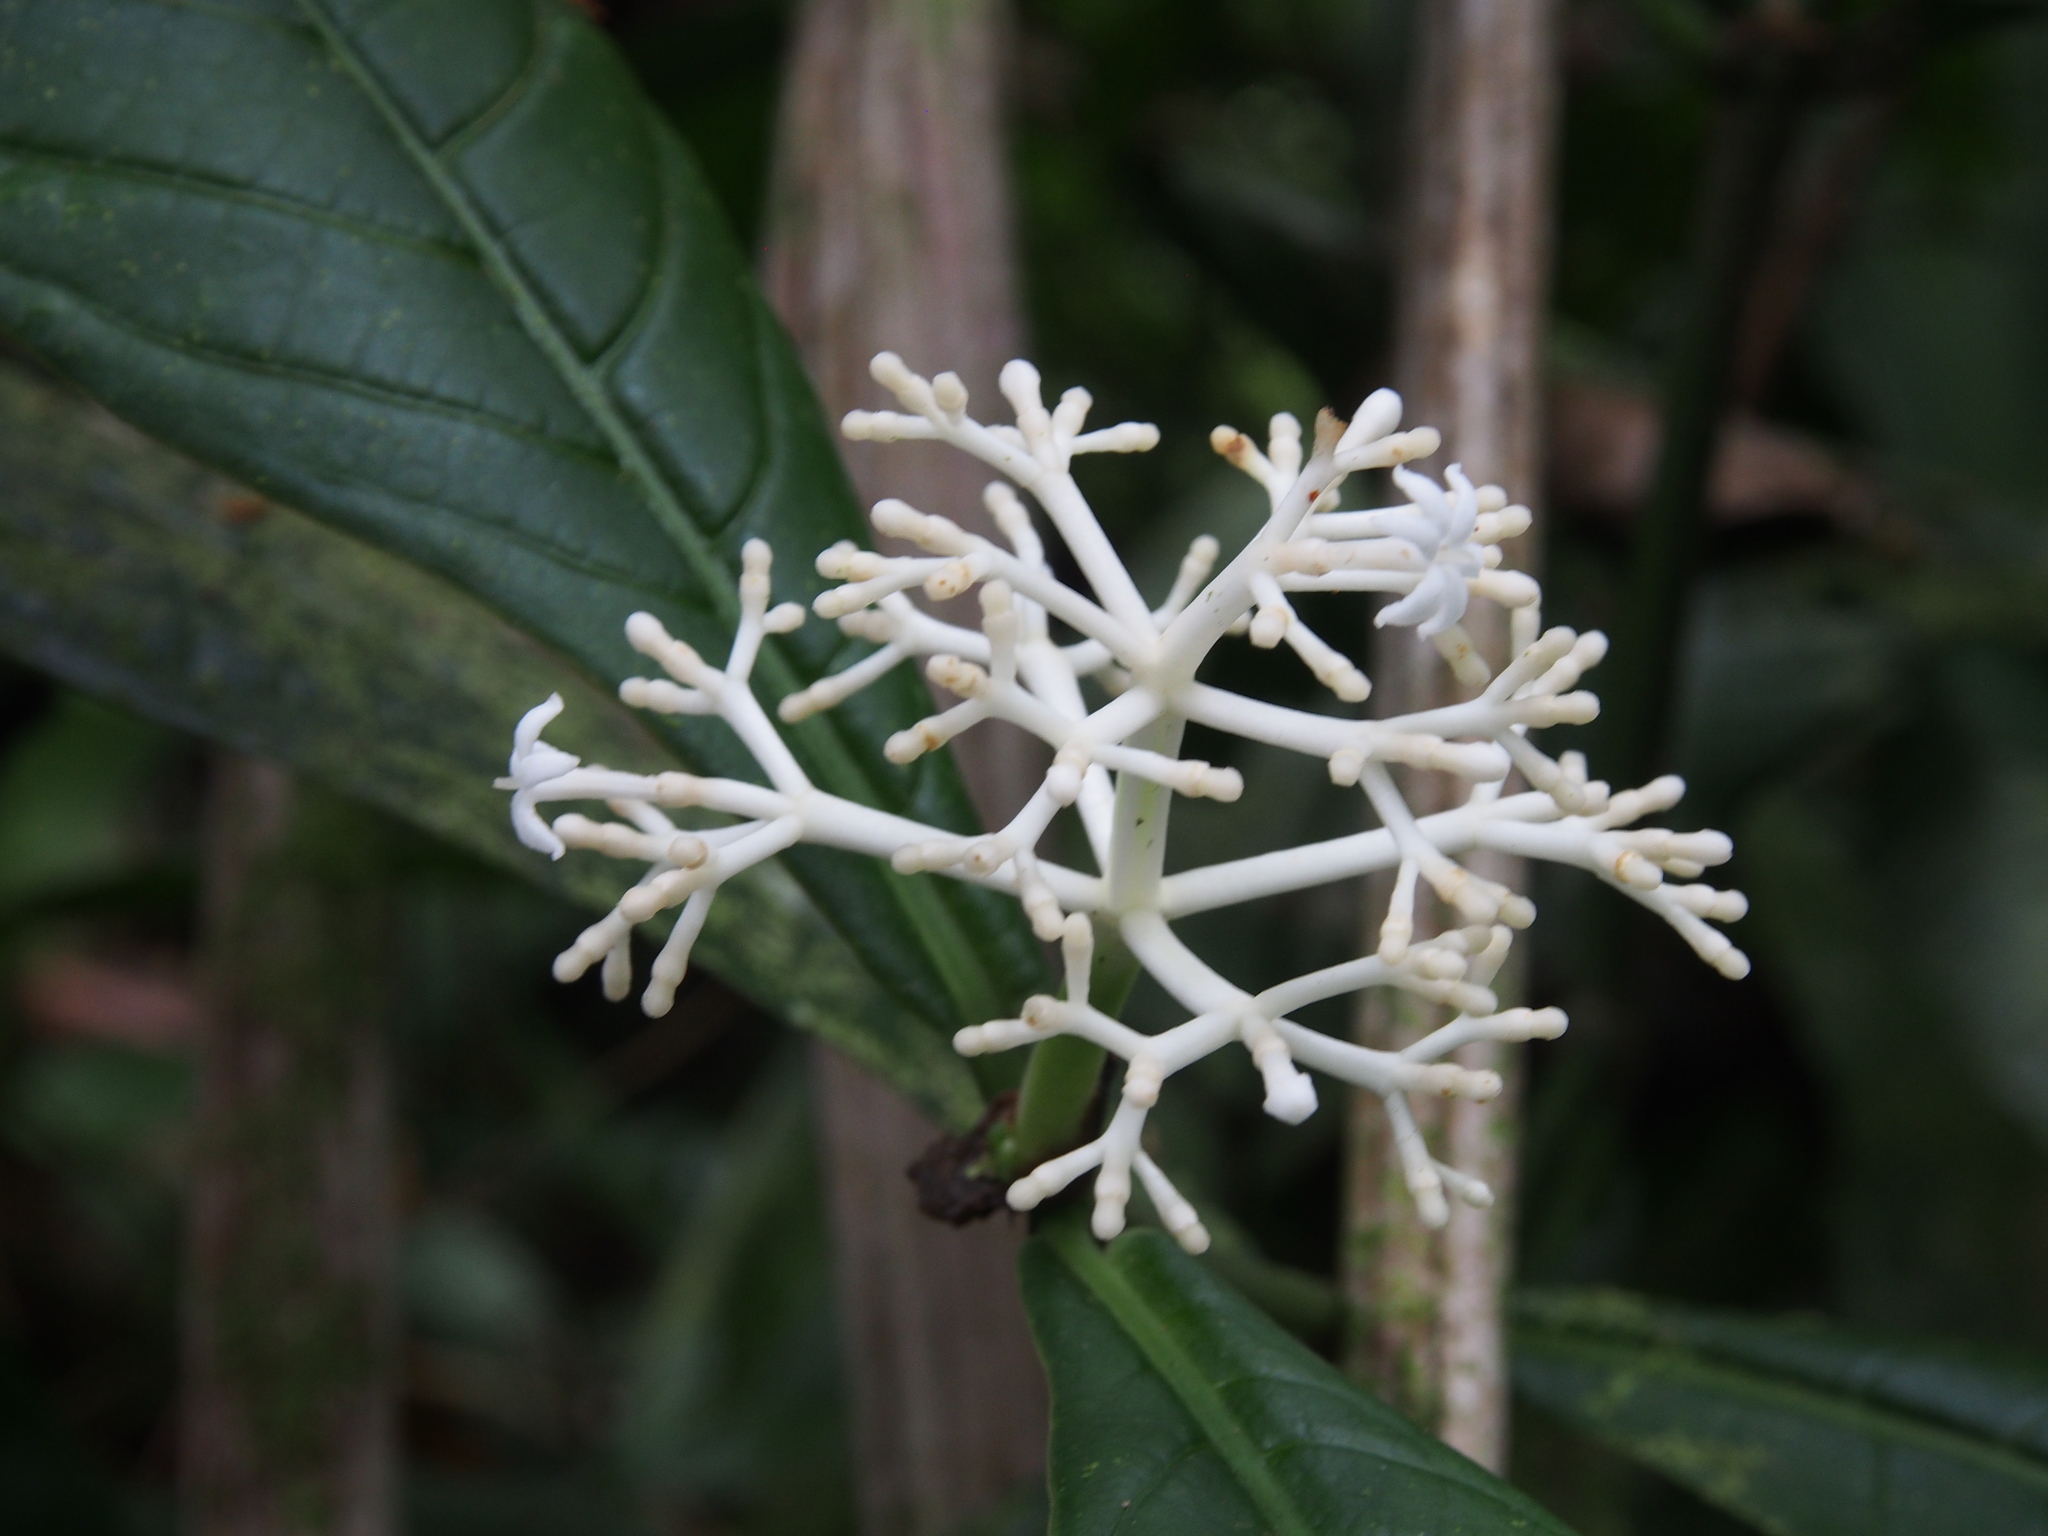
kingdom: Plantae
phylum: Tracheophyta
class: Magnoliopsida
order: Gentianales
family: Rubiaceae
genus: Rudgea
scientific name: Rudgea reducticalyx
